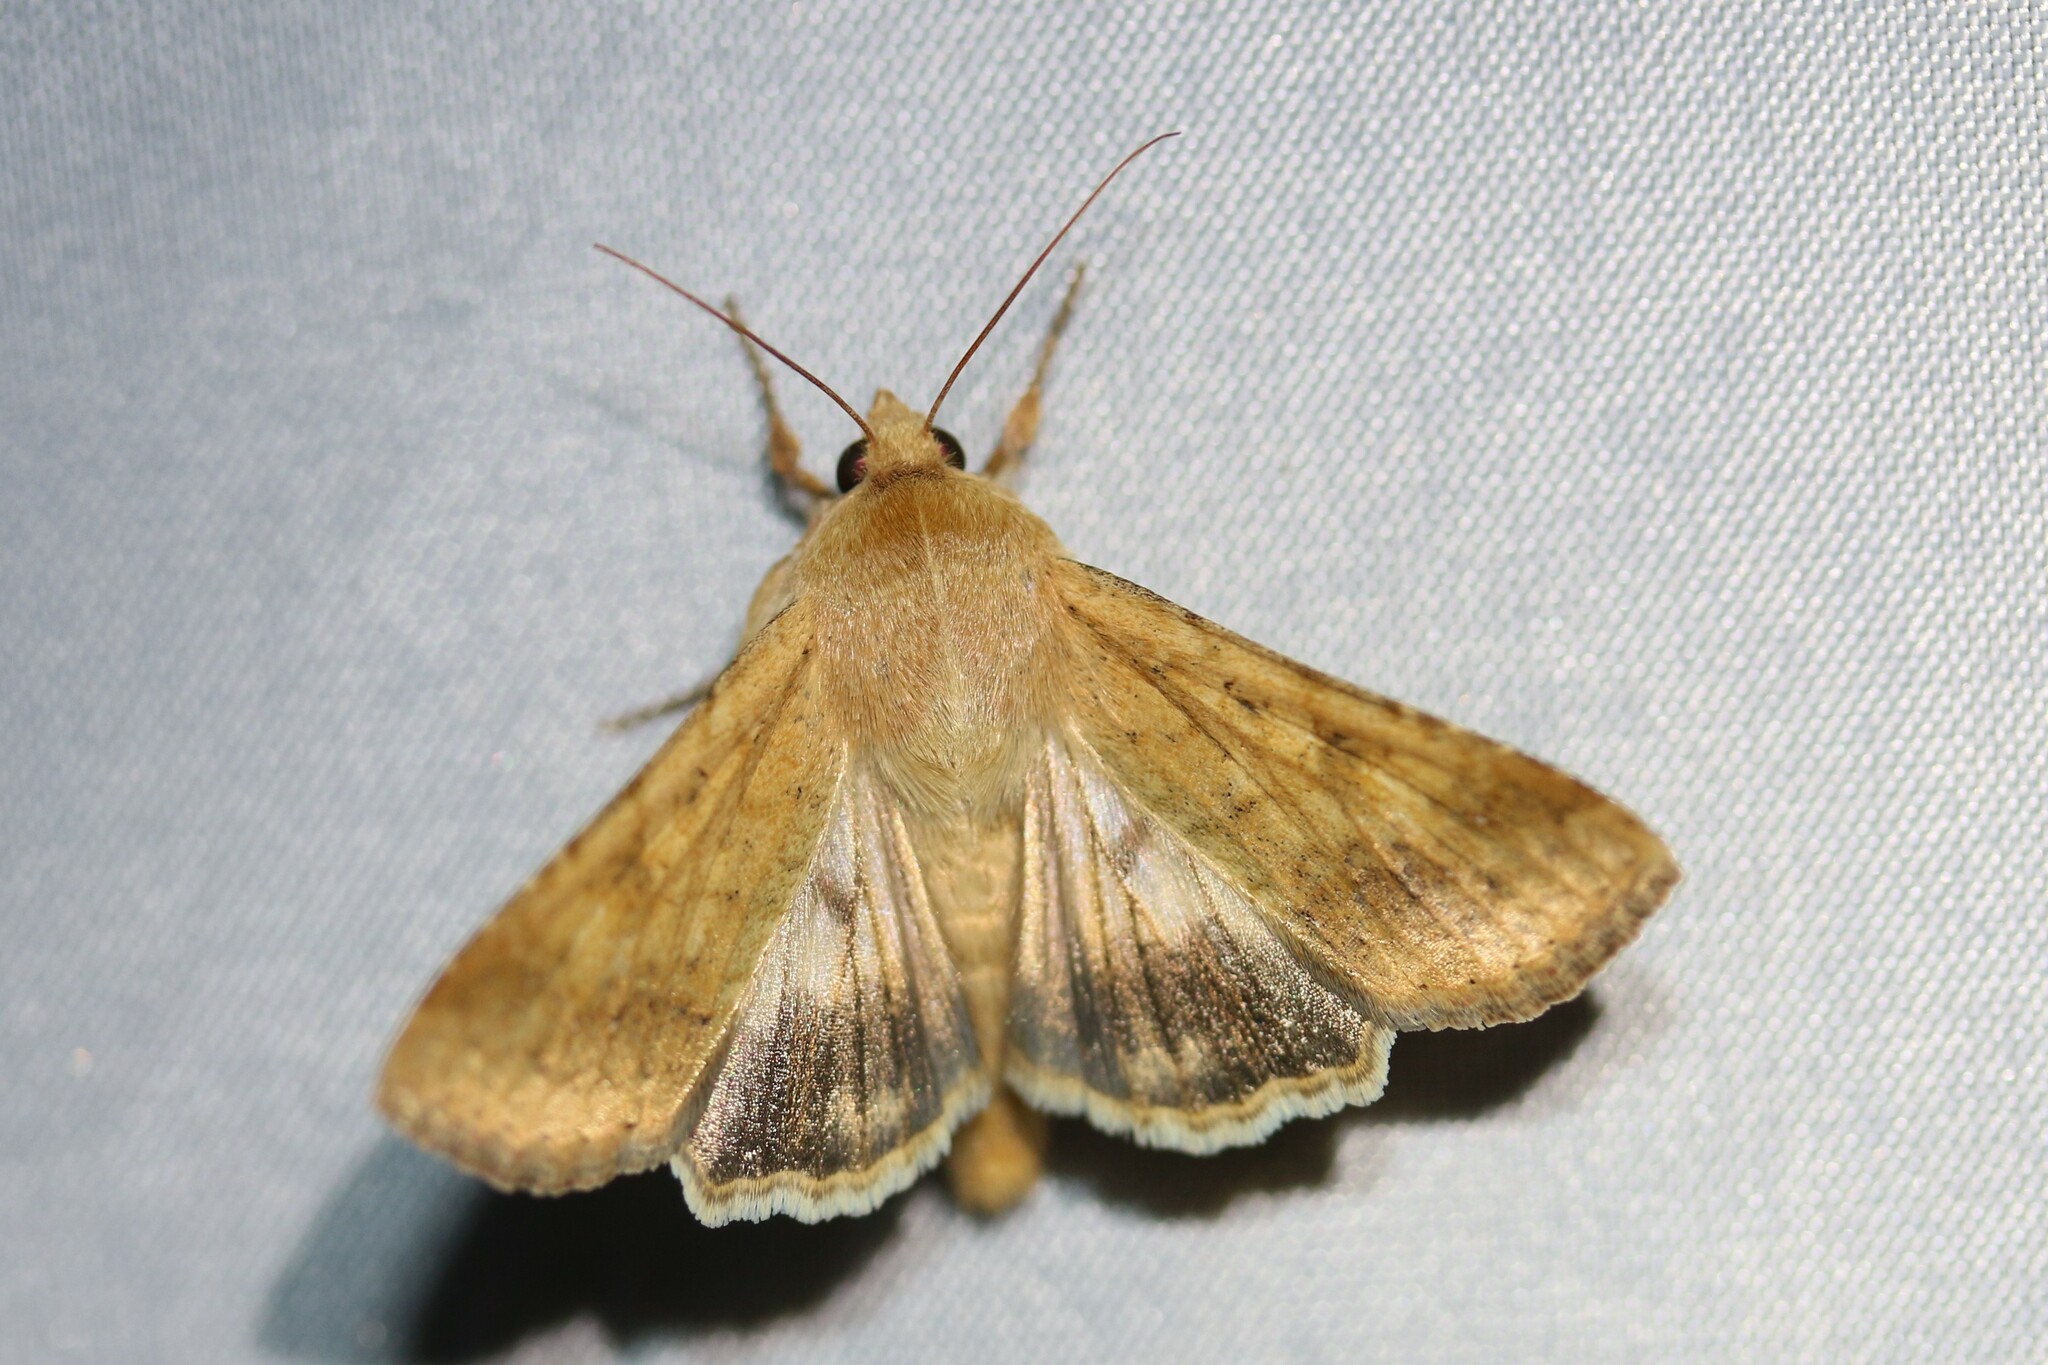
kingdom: Animalia
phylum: Arthropoda
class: Insecta
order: Lepidoptera
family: Noctuidae
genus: Helicoverpa
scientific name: Helicoverpa armigera
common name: Cotton bollworm
